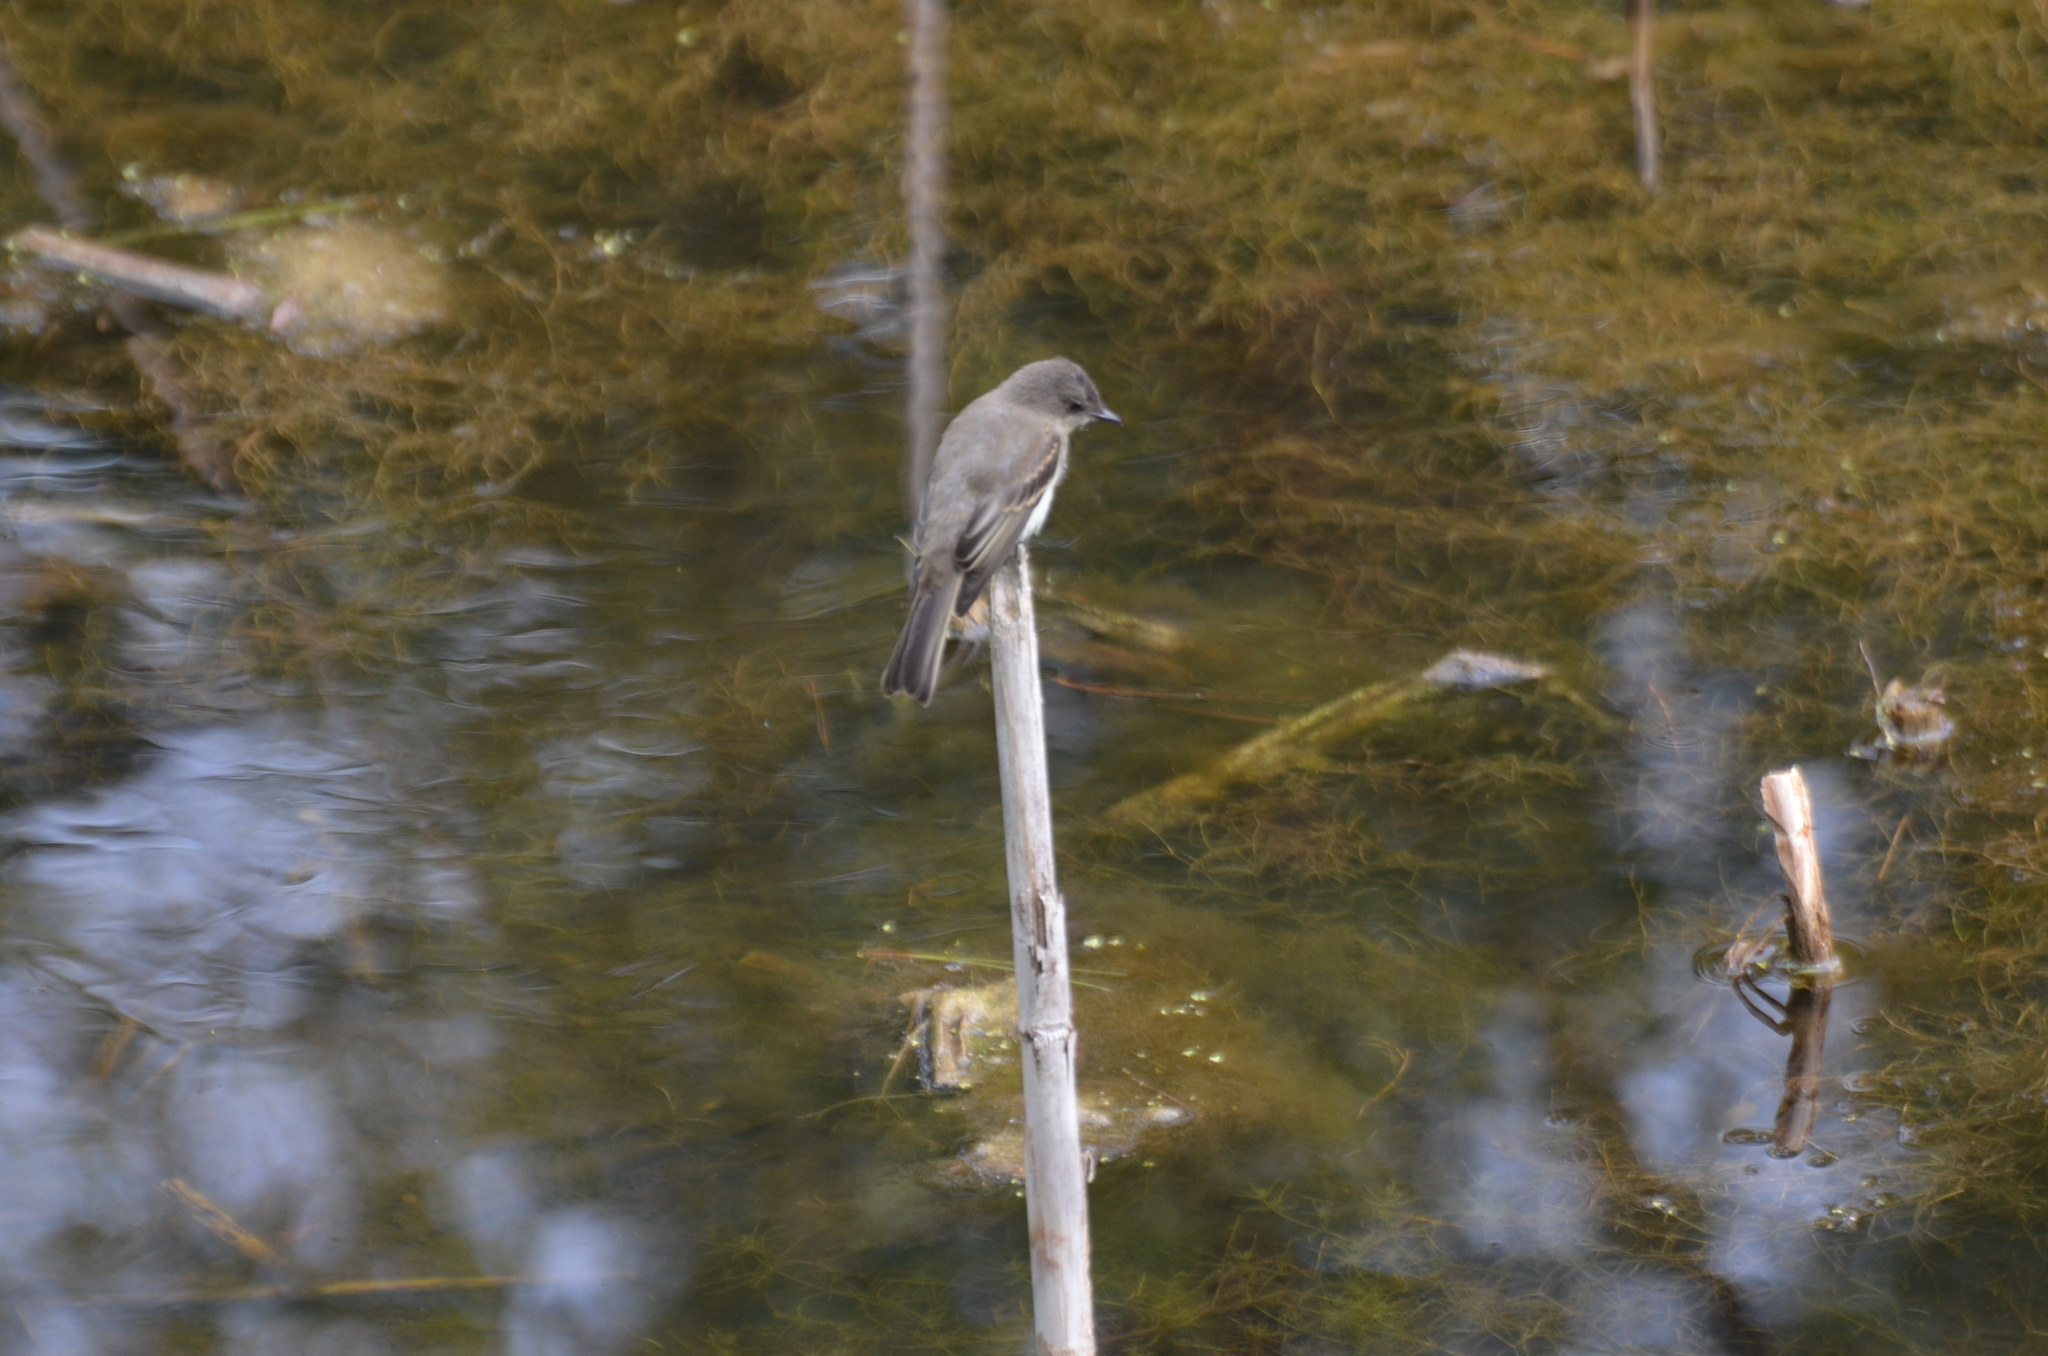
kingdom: Animalia
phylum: Chordata
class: Aves
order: Passeriformes
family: Tyrannidae
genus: Sayornis
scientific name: Sayornis phoebe
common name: Eastern phoebe
